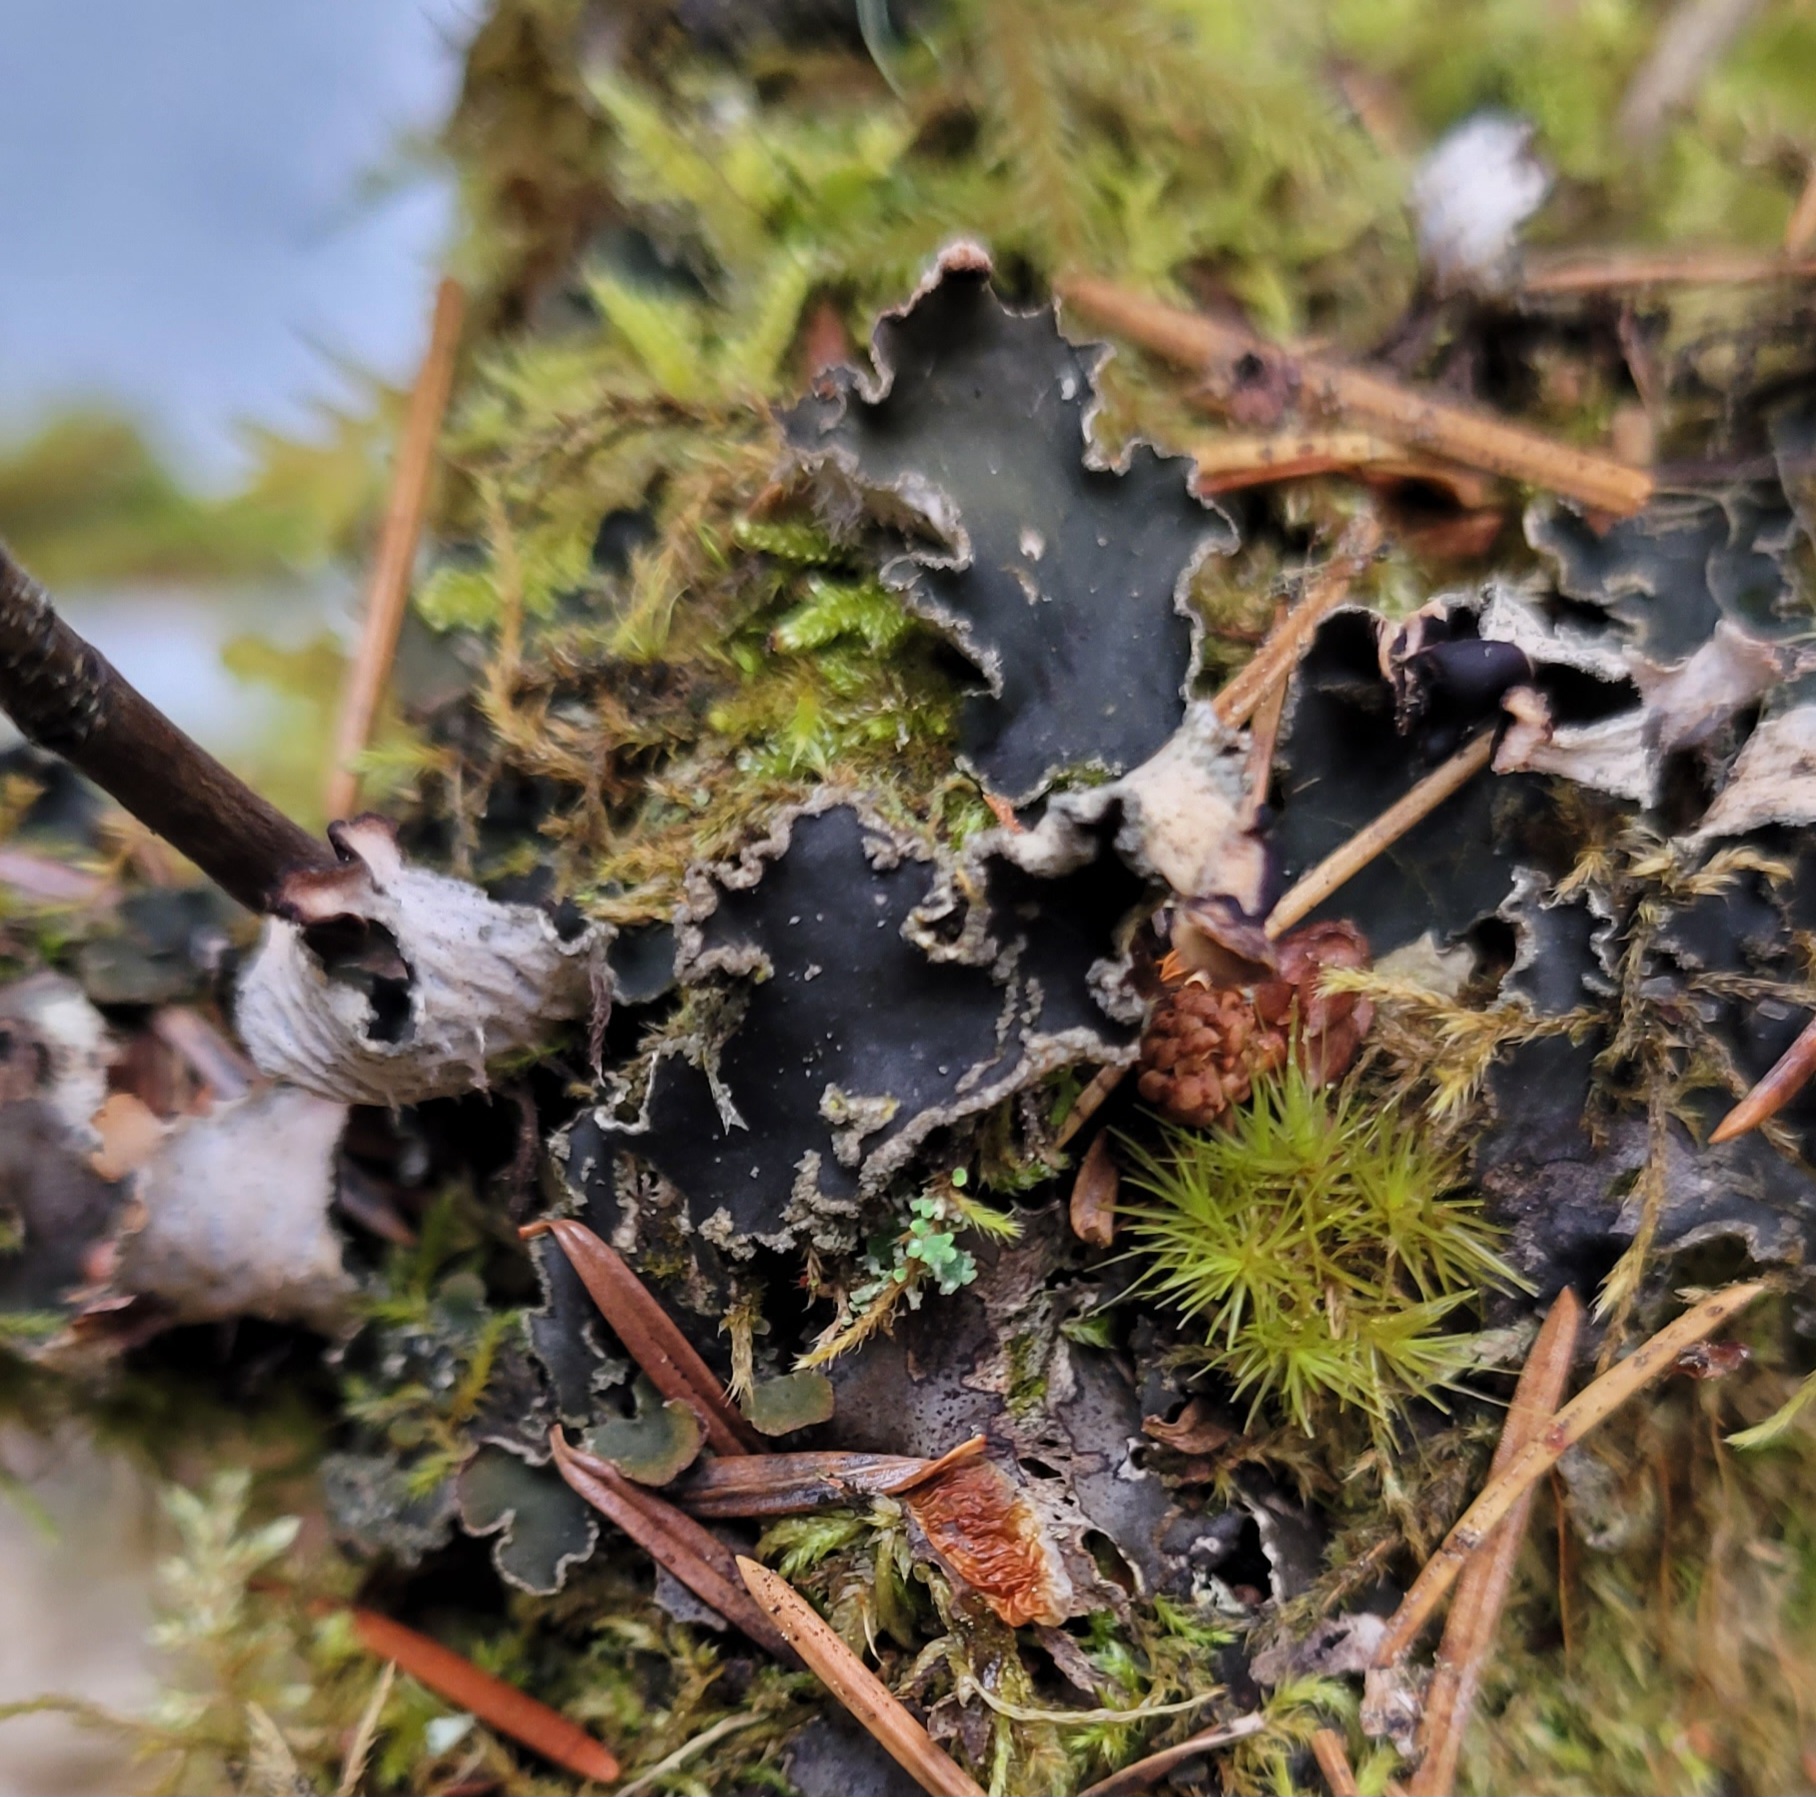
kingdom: Fungi
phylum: Ascomycota
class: Lecanoromycetes
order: Peltigerales
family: Peltigeraceae
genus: Peltigera
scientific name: Peltigera collina
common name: Gritty tree pelt lichen
